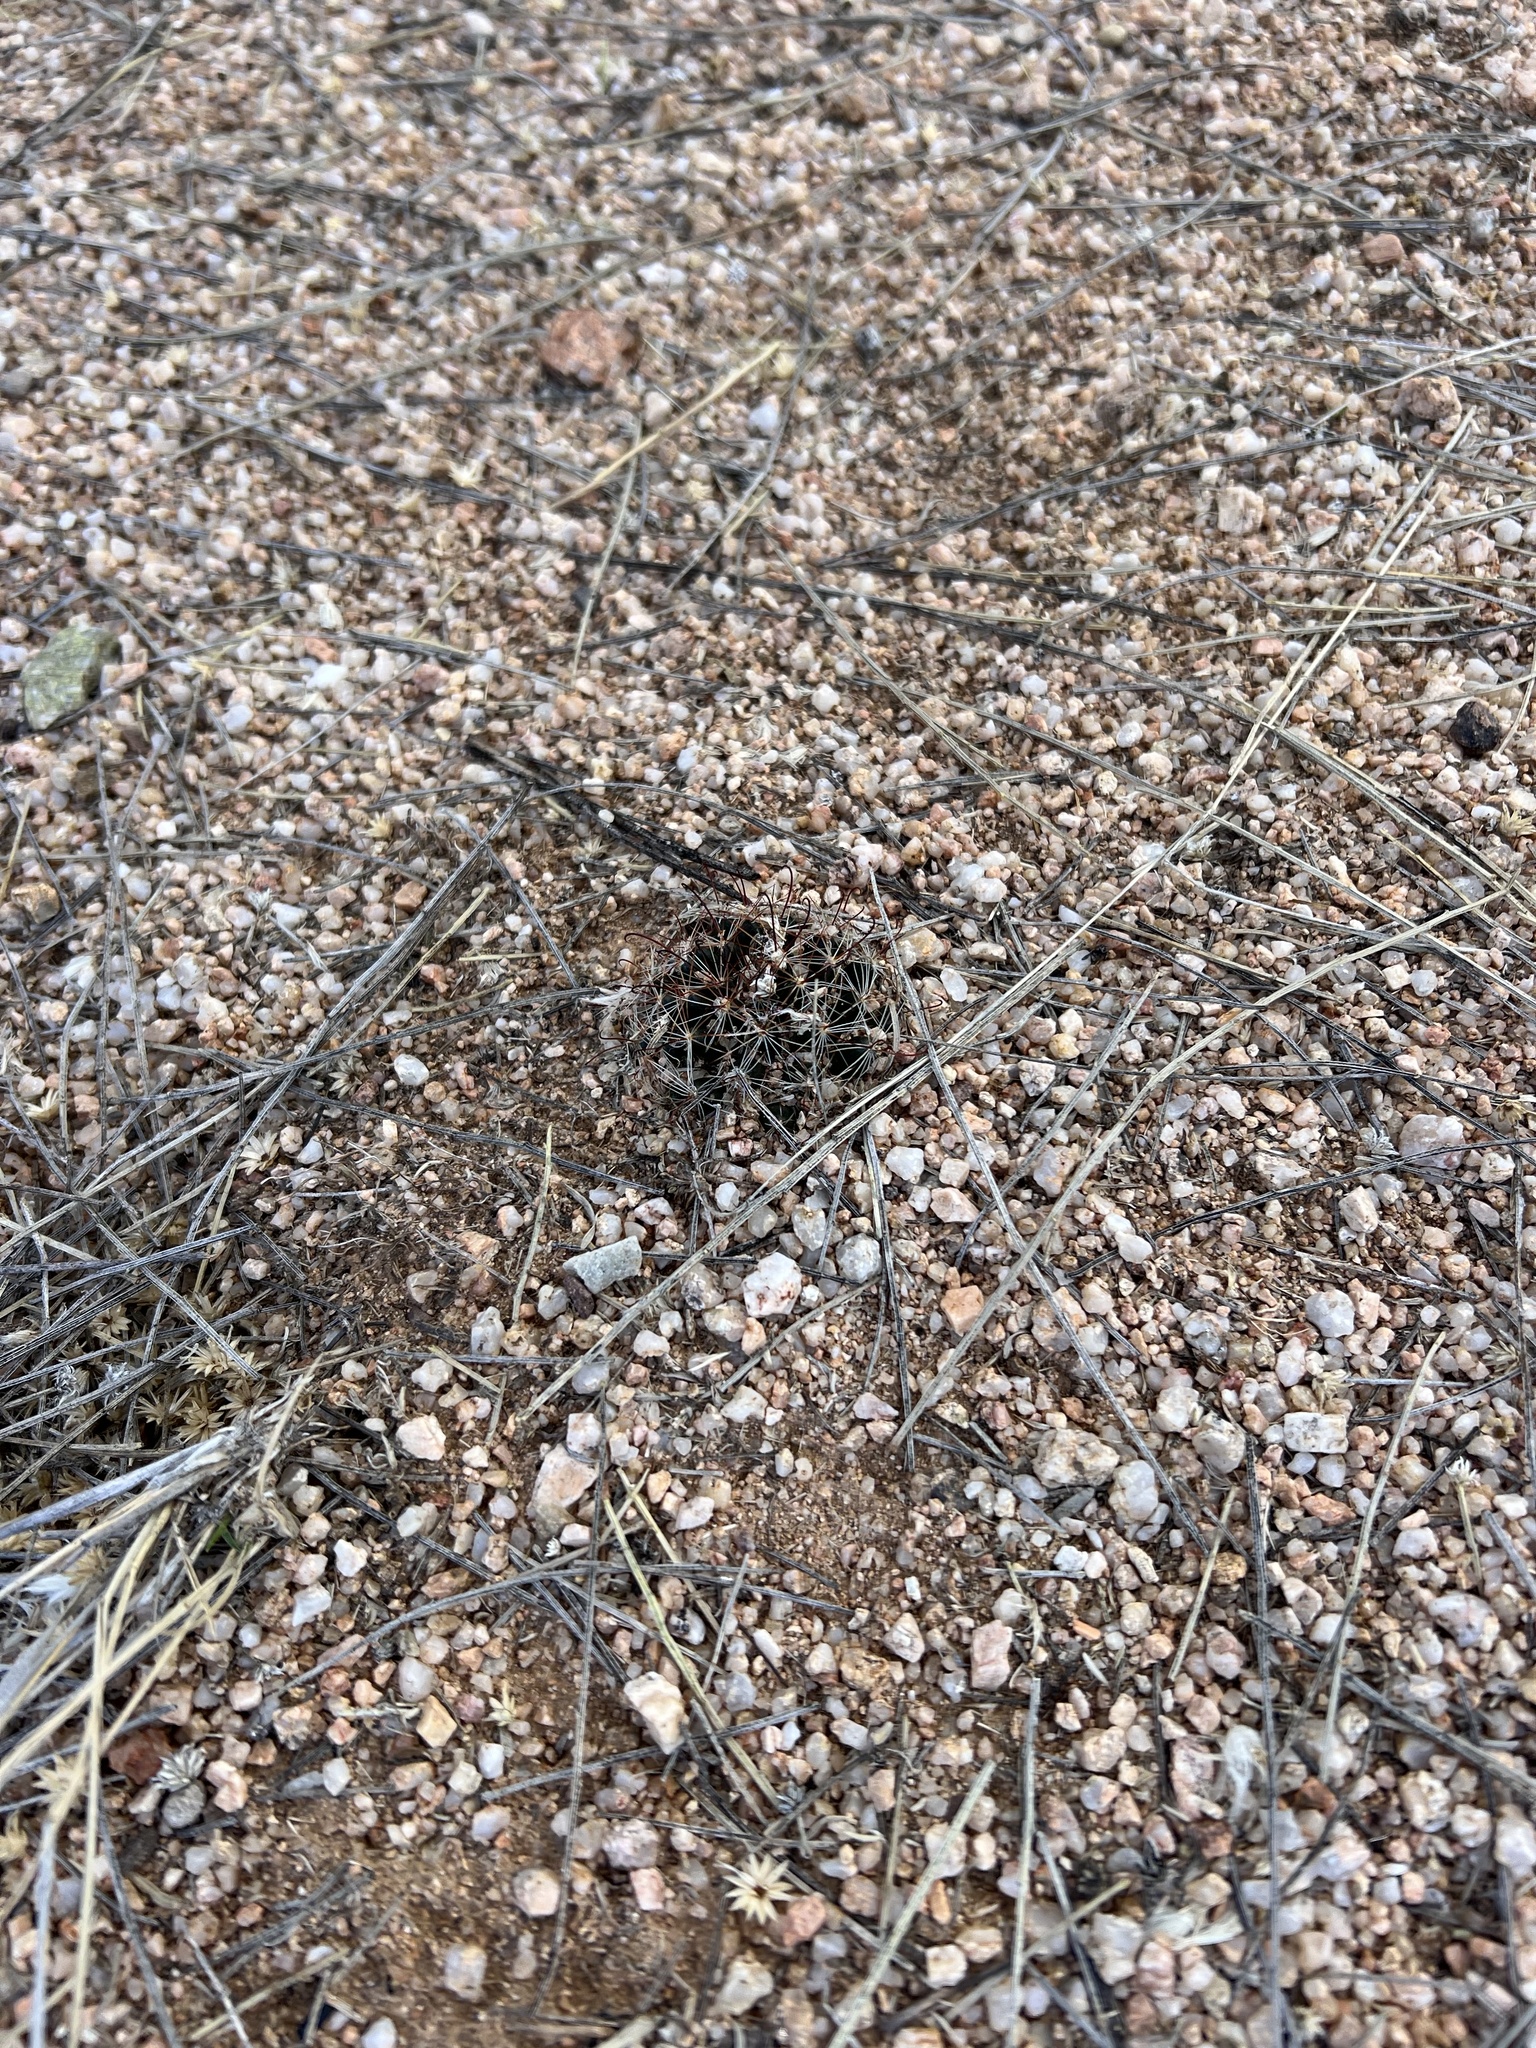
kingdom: Plantae
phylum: Tracheophyta
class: Magnoliopsida
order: Caryophyllales
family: Cactaceae
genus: Cochemiea
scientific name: Cochemiea wrightii
